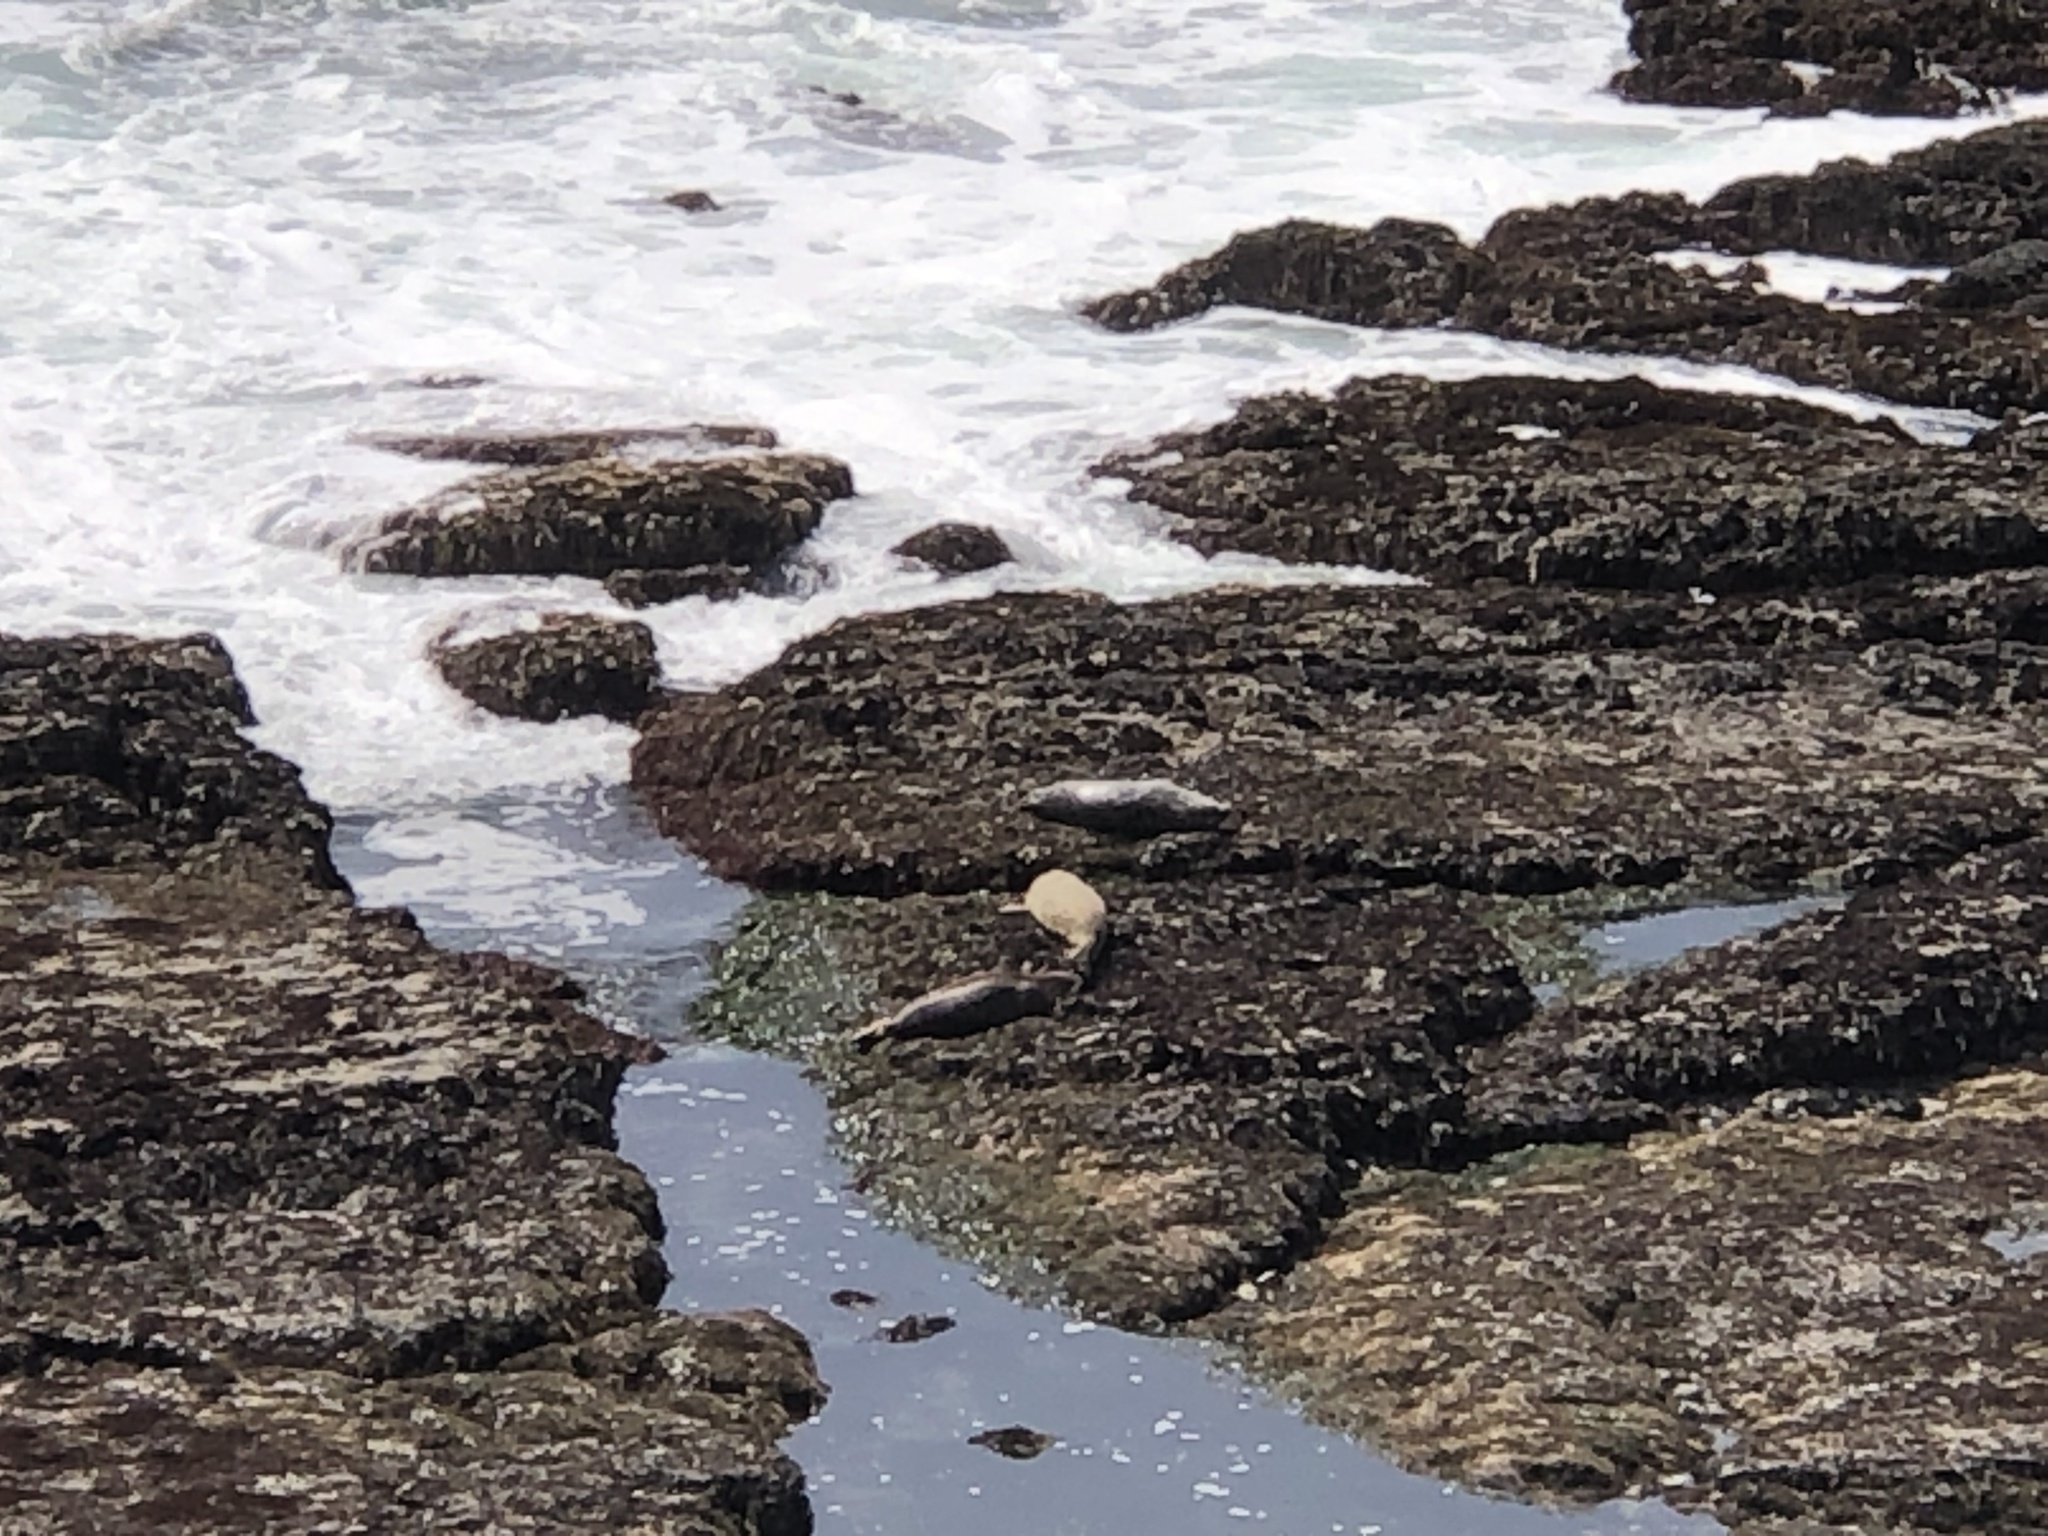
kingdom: Animalia
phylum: Chordata
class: Mammalia
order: Carnivora
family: Phocidae
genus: Phoca
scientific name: Phoca vitulina
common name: Harbor seal
